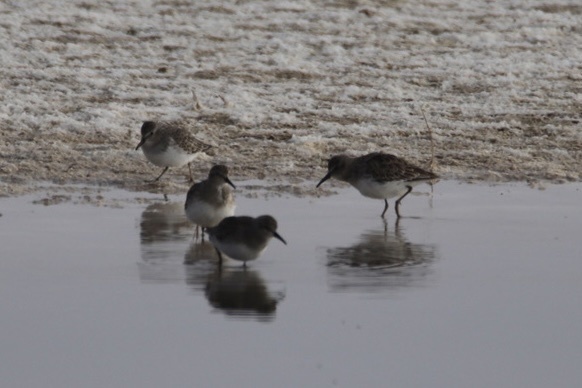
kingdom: Animalia
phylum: Chordata
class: Aves
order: Charadriiformes
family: Scolopacidae
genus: Calidris
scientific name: Calidris minutilla
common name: Least sandpiper
